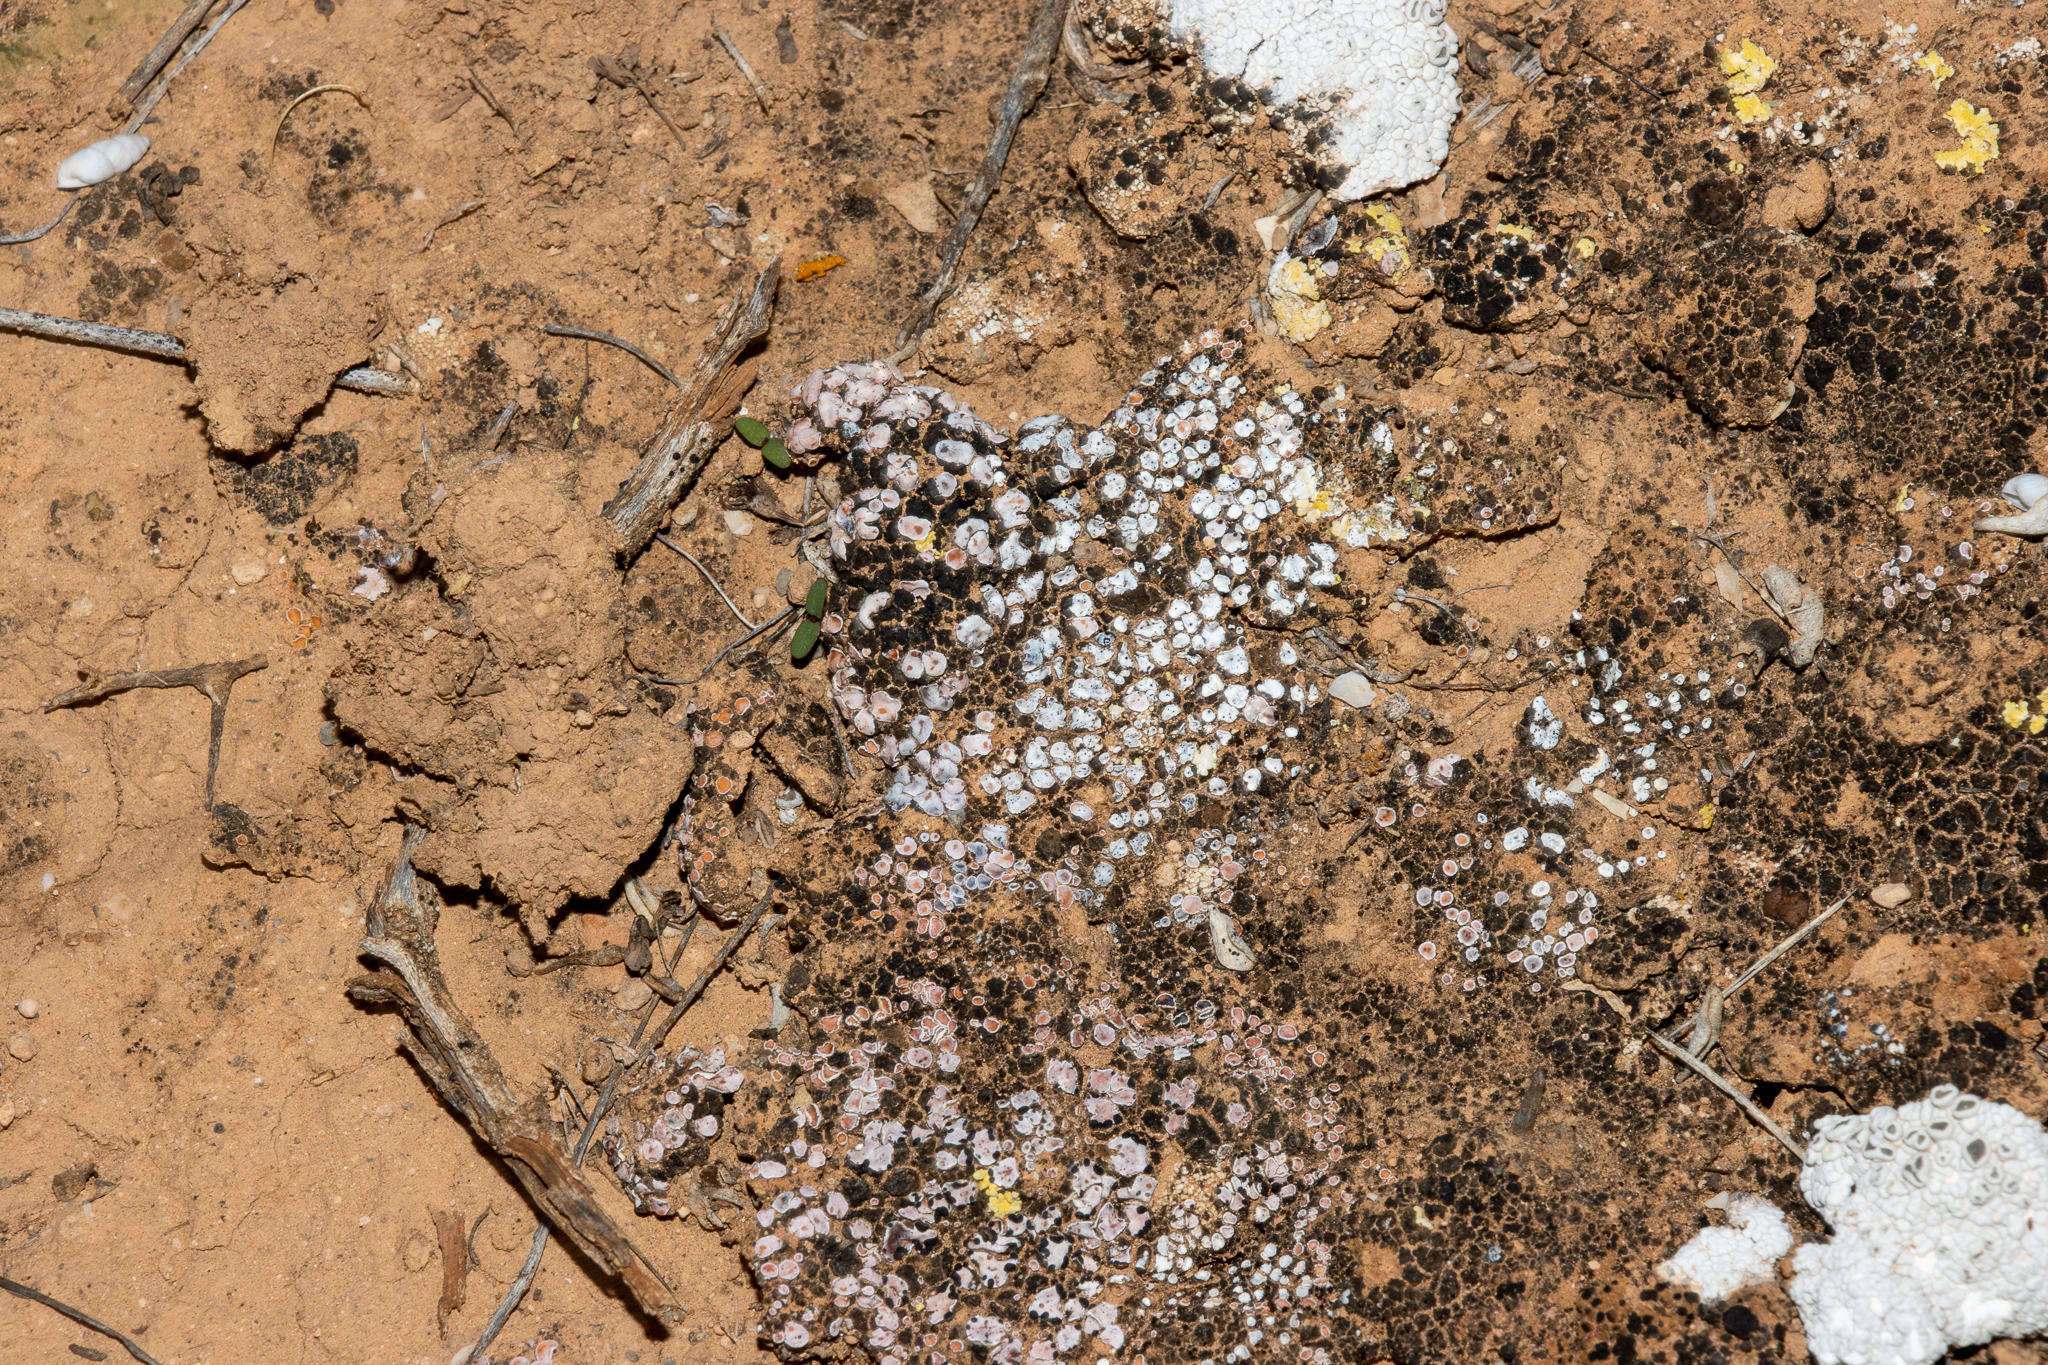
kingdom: Fungi
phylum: Ascomycota
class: Lecanoromycetes
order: Lecanorales
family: Psoraceae
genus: Psora
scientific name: Psora decipiens
